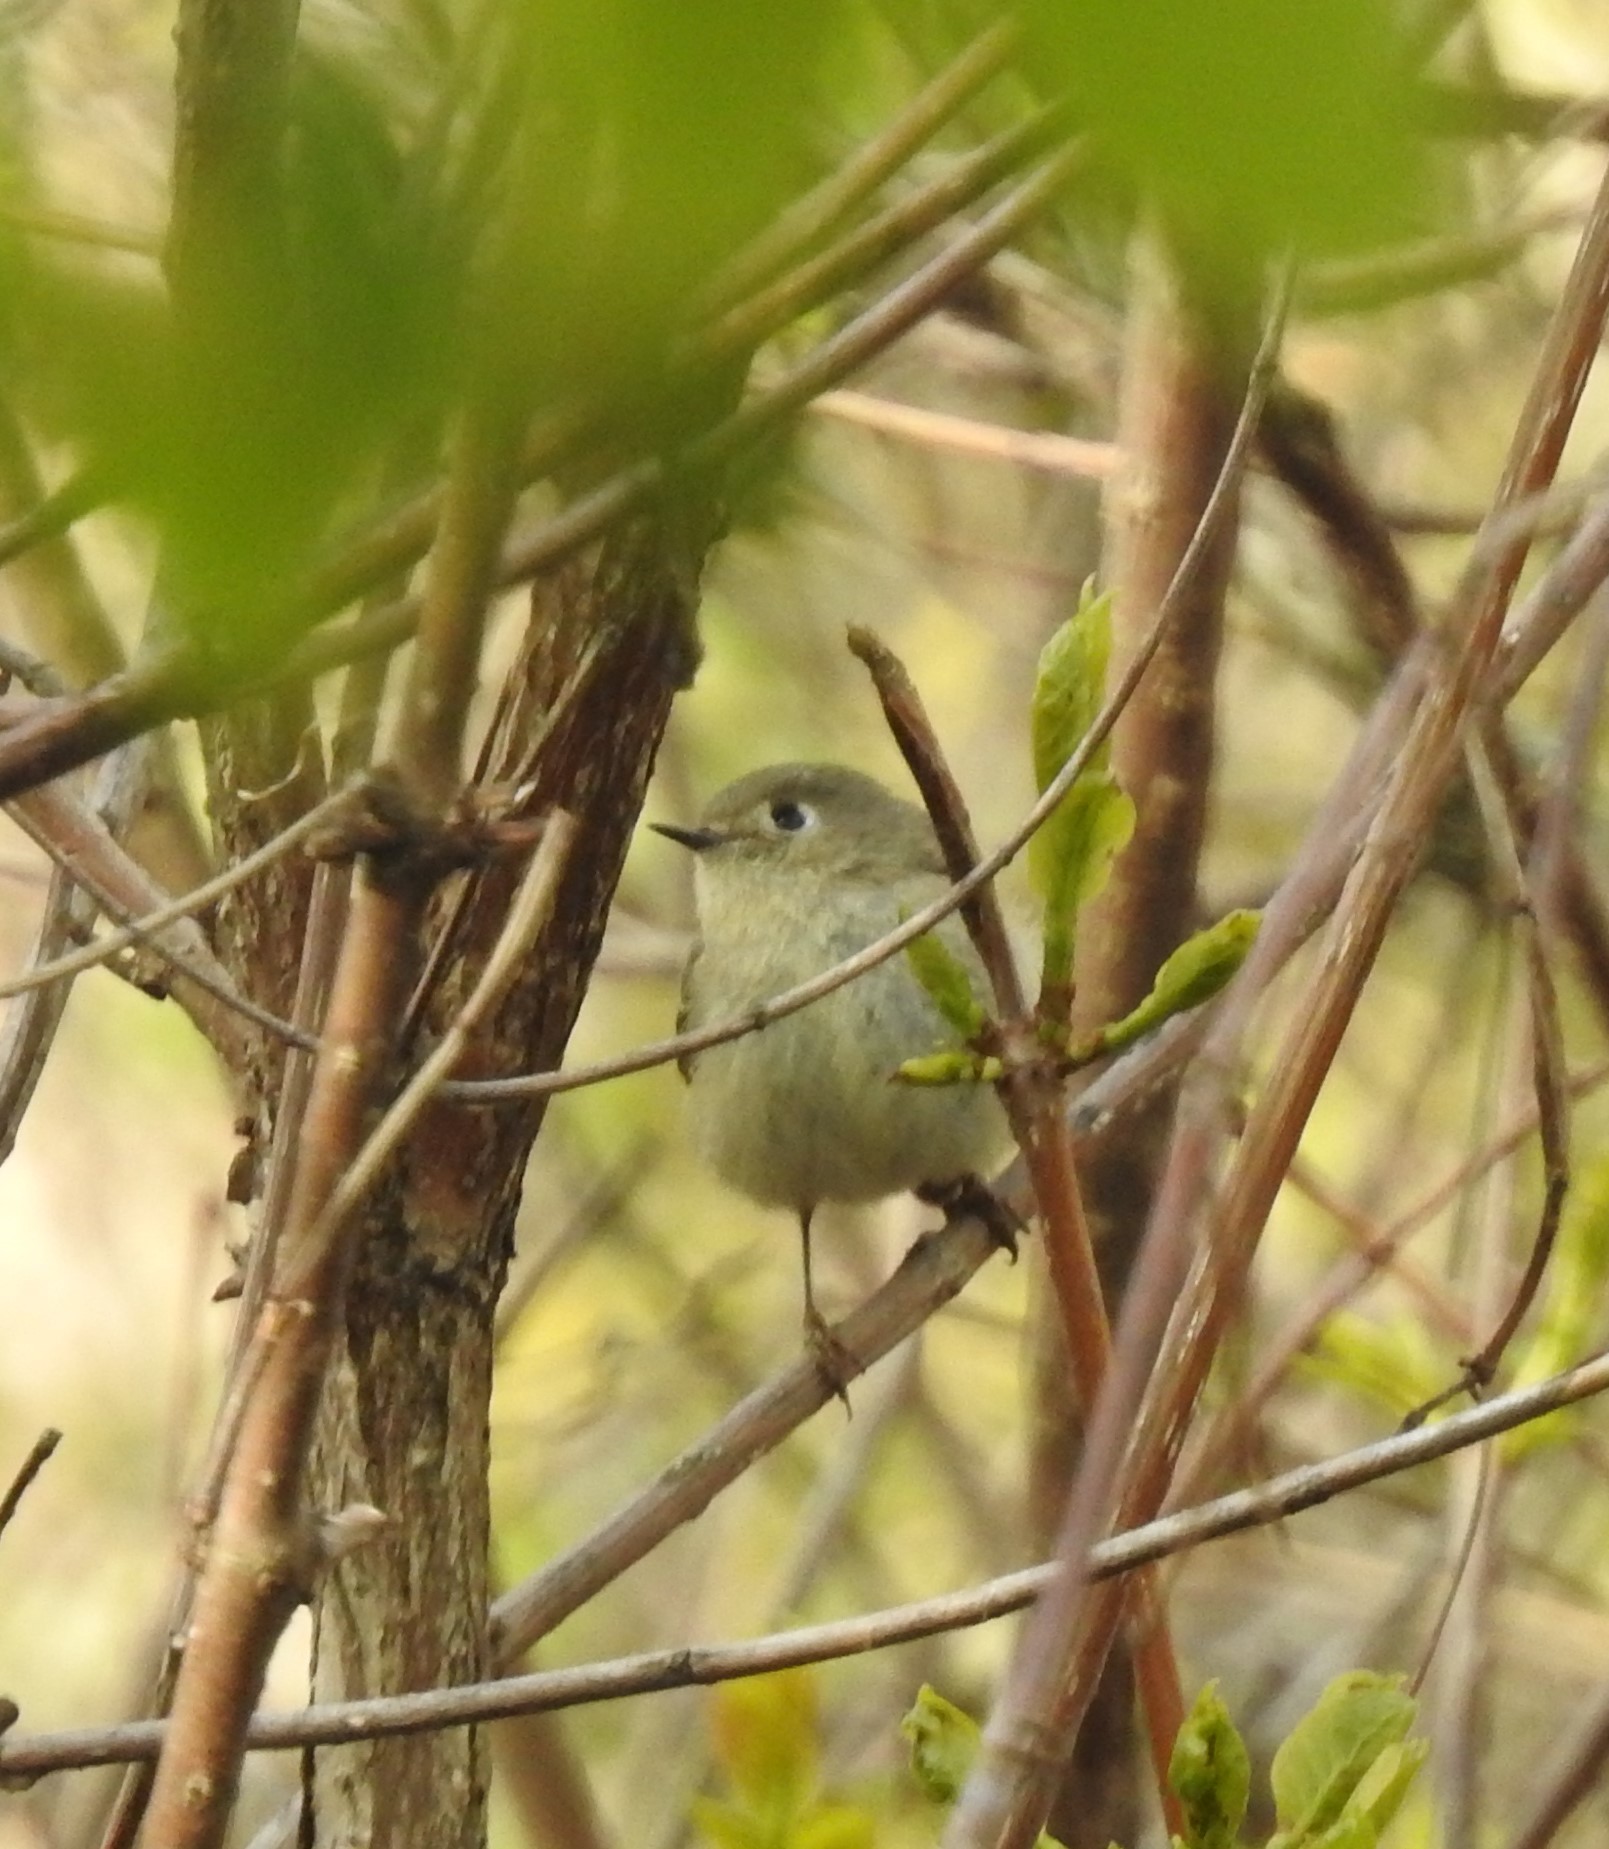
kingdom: Animalia
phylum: Chordata
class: Aves
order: Passeriformes
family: Regulidae
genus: Regulus
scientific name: Regulus calendula
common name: Ruby-crowned kinglet
